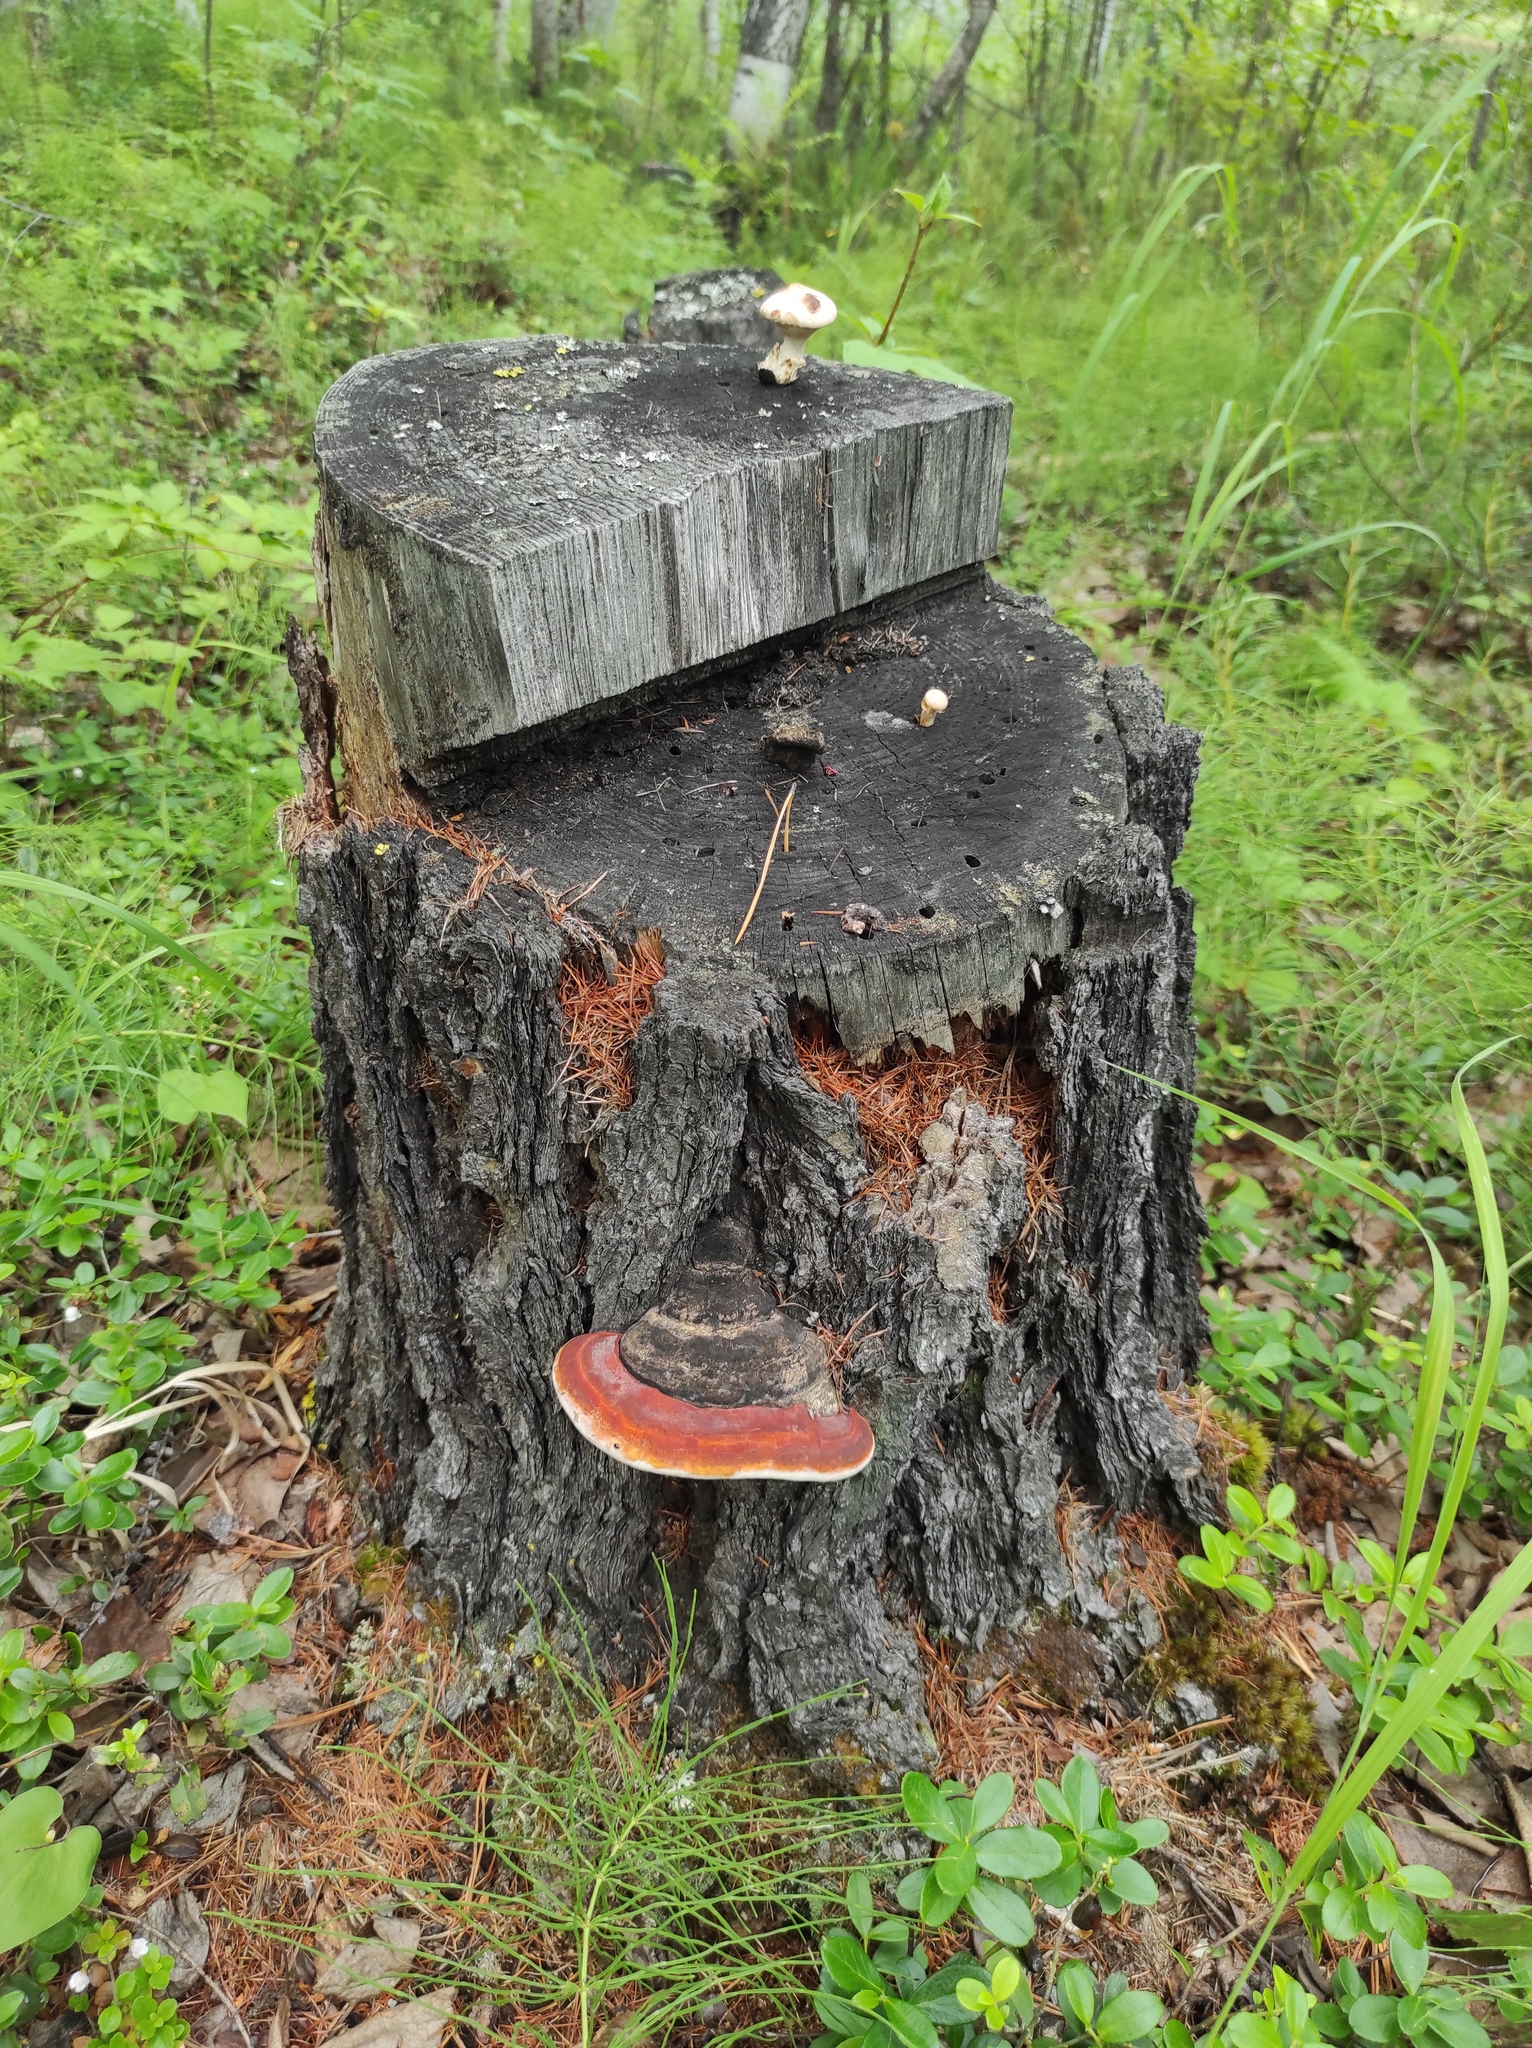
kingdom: Fungi
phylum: Basidiomycota
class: Agaricomycetes
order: Polyporales
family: Fomitopsidaceae
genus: Fomitopsis
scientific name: Fomitopsis pinicola
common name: Red-belted bracket
